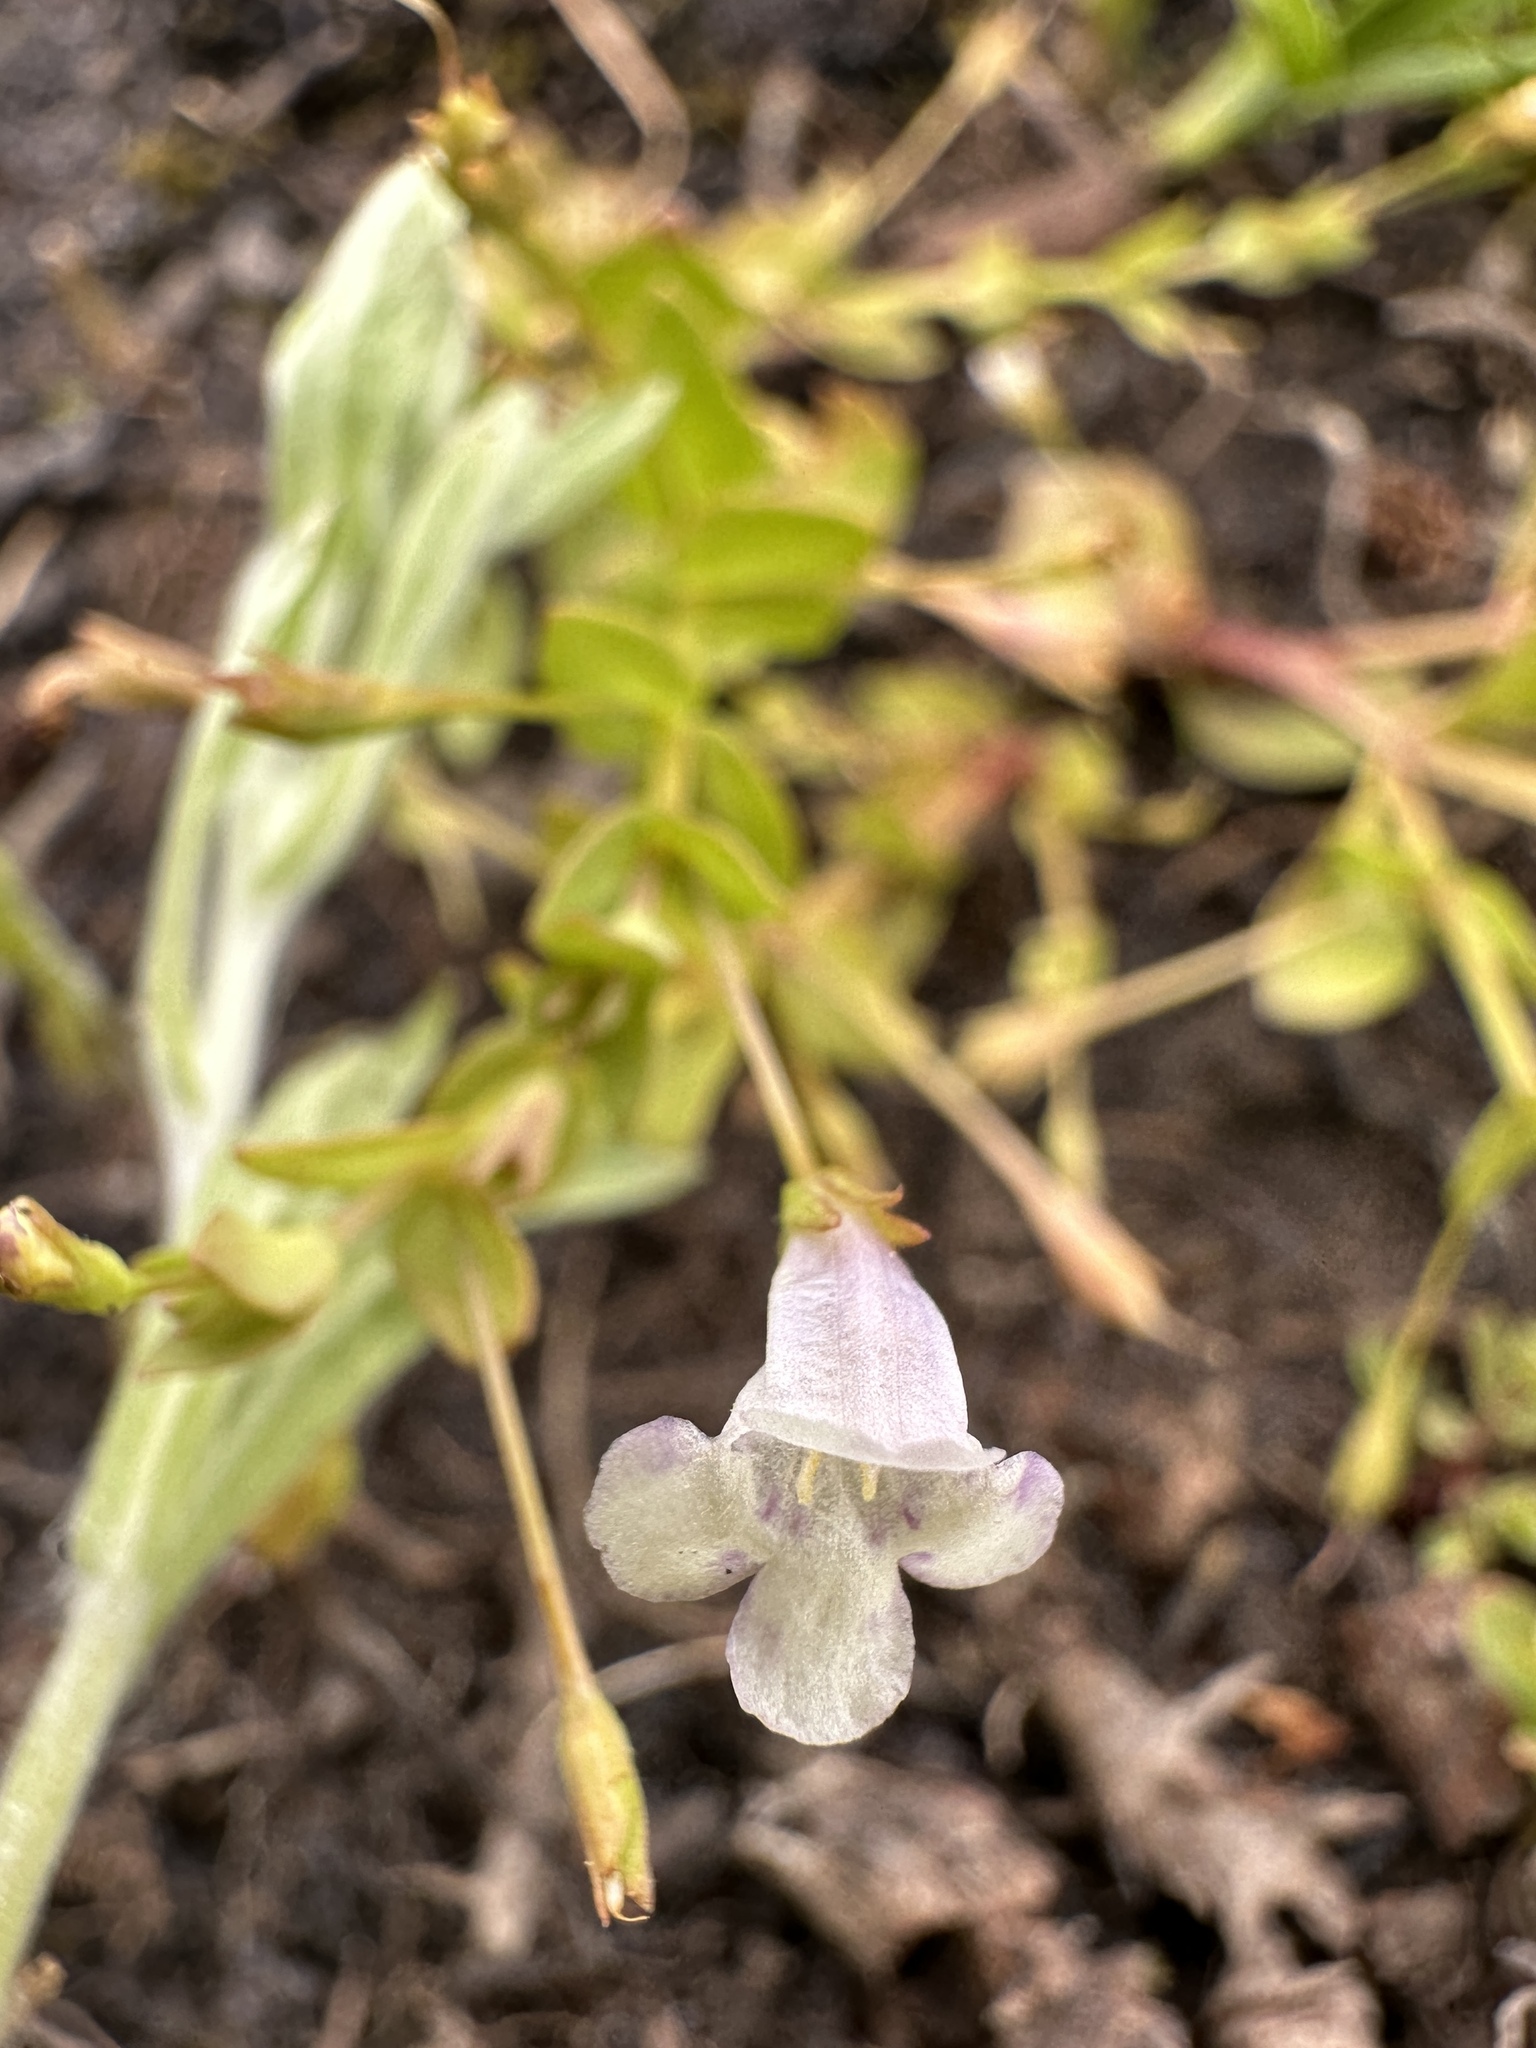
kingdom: Plantae
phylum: Tracheophyta
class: Magnoliopsida
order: Lamiales
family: Linderniaceae
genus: Lindernia
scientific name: Lindernia dubia
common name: Annual false pimpernel
